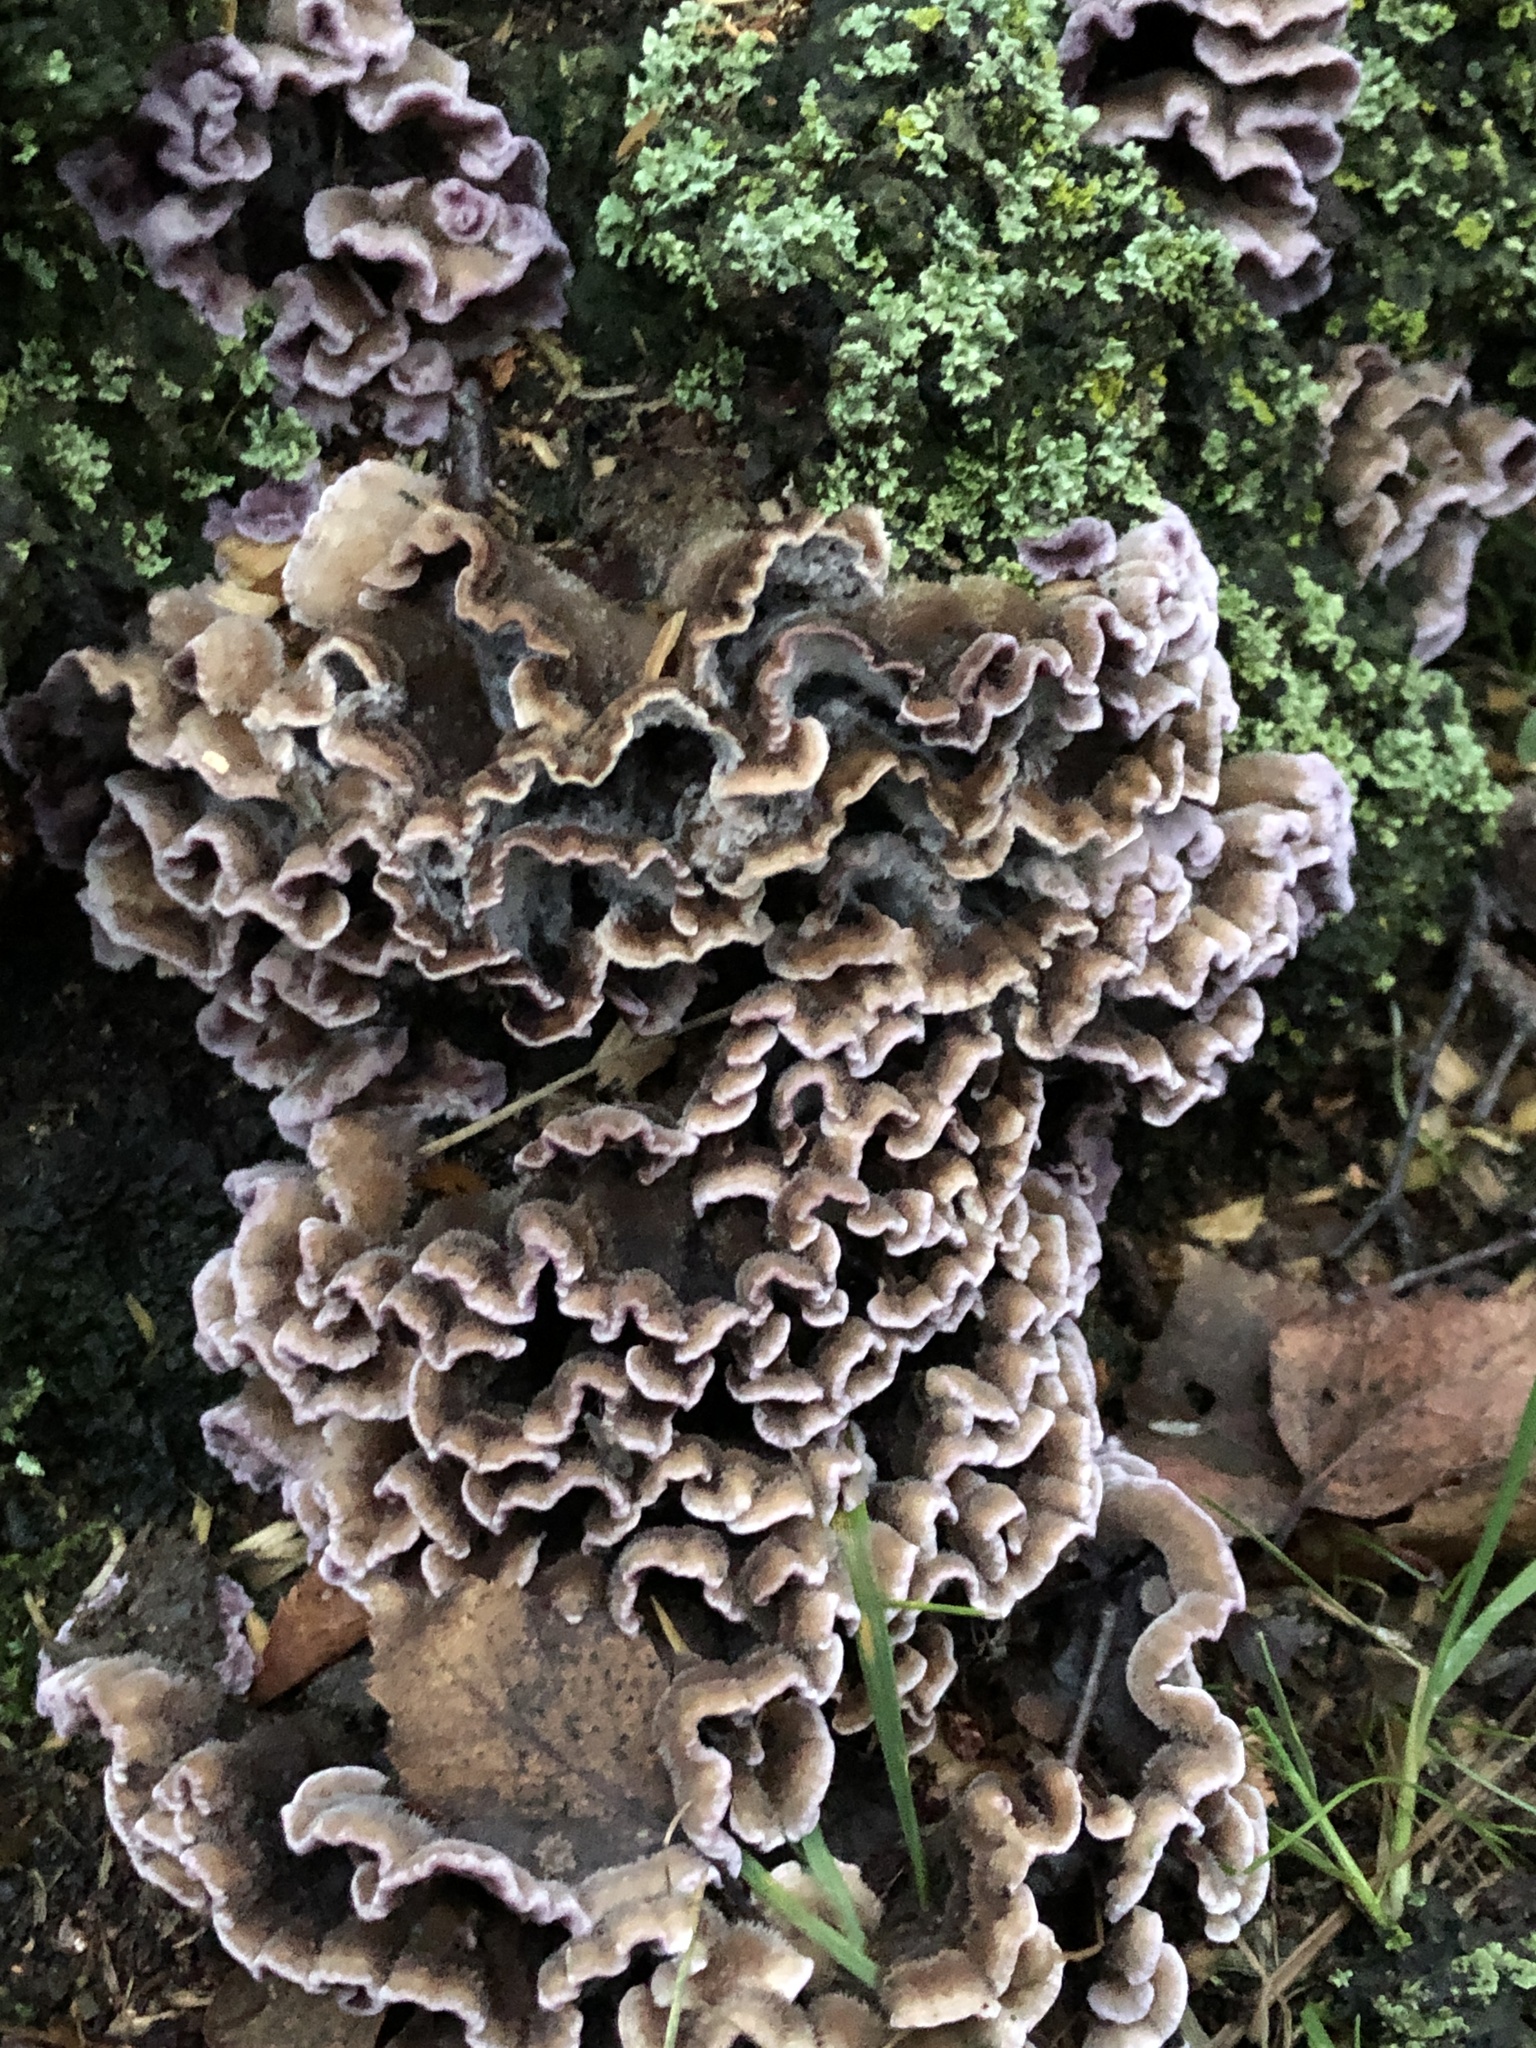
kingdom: Fungi
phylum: Basidiomycota
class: Agaricomycetes
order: Agaricales
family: Cyphellaceae
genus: Chondrostereum
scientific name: Chondrostereum purpureum
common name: Silver leaf disease
